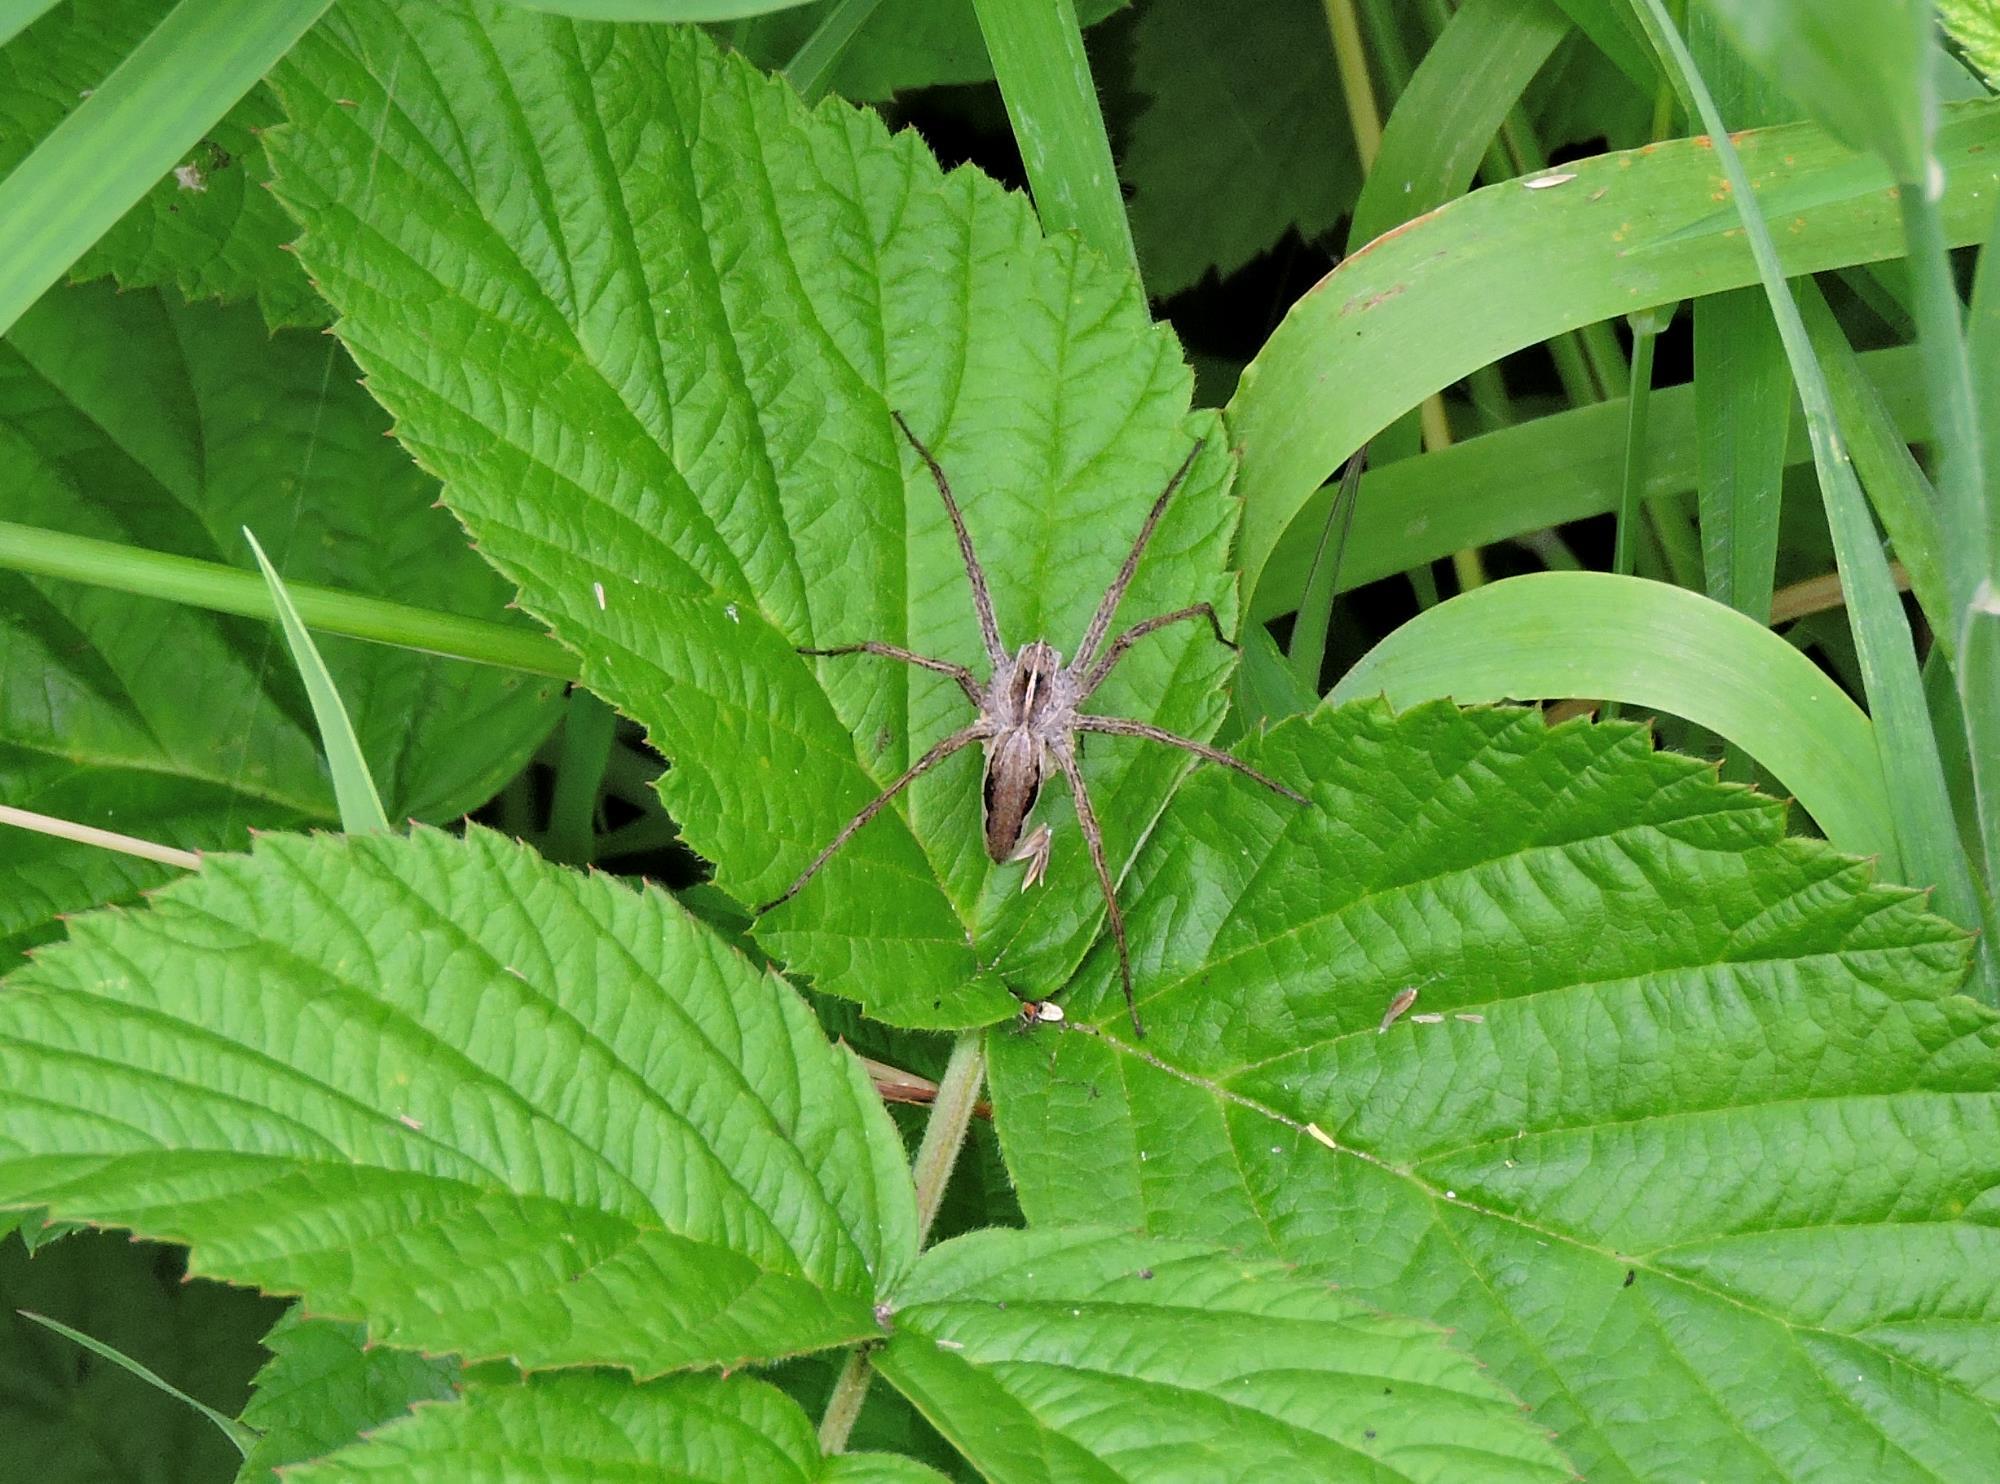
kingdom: Animalia
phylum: Arthropoda
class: Arachnida
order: Araneae
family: Pisauridae
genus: Pisaura
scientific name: Pisaura mirabilis
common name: Tent spider
